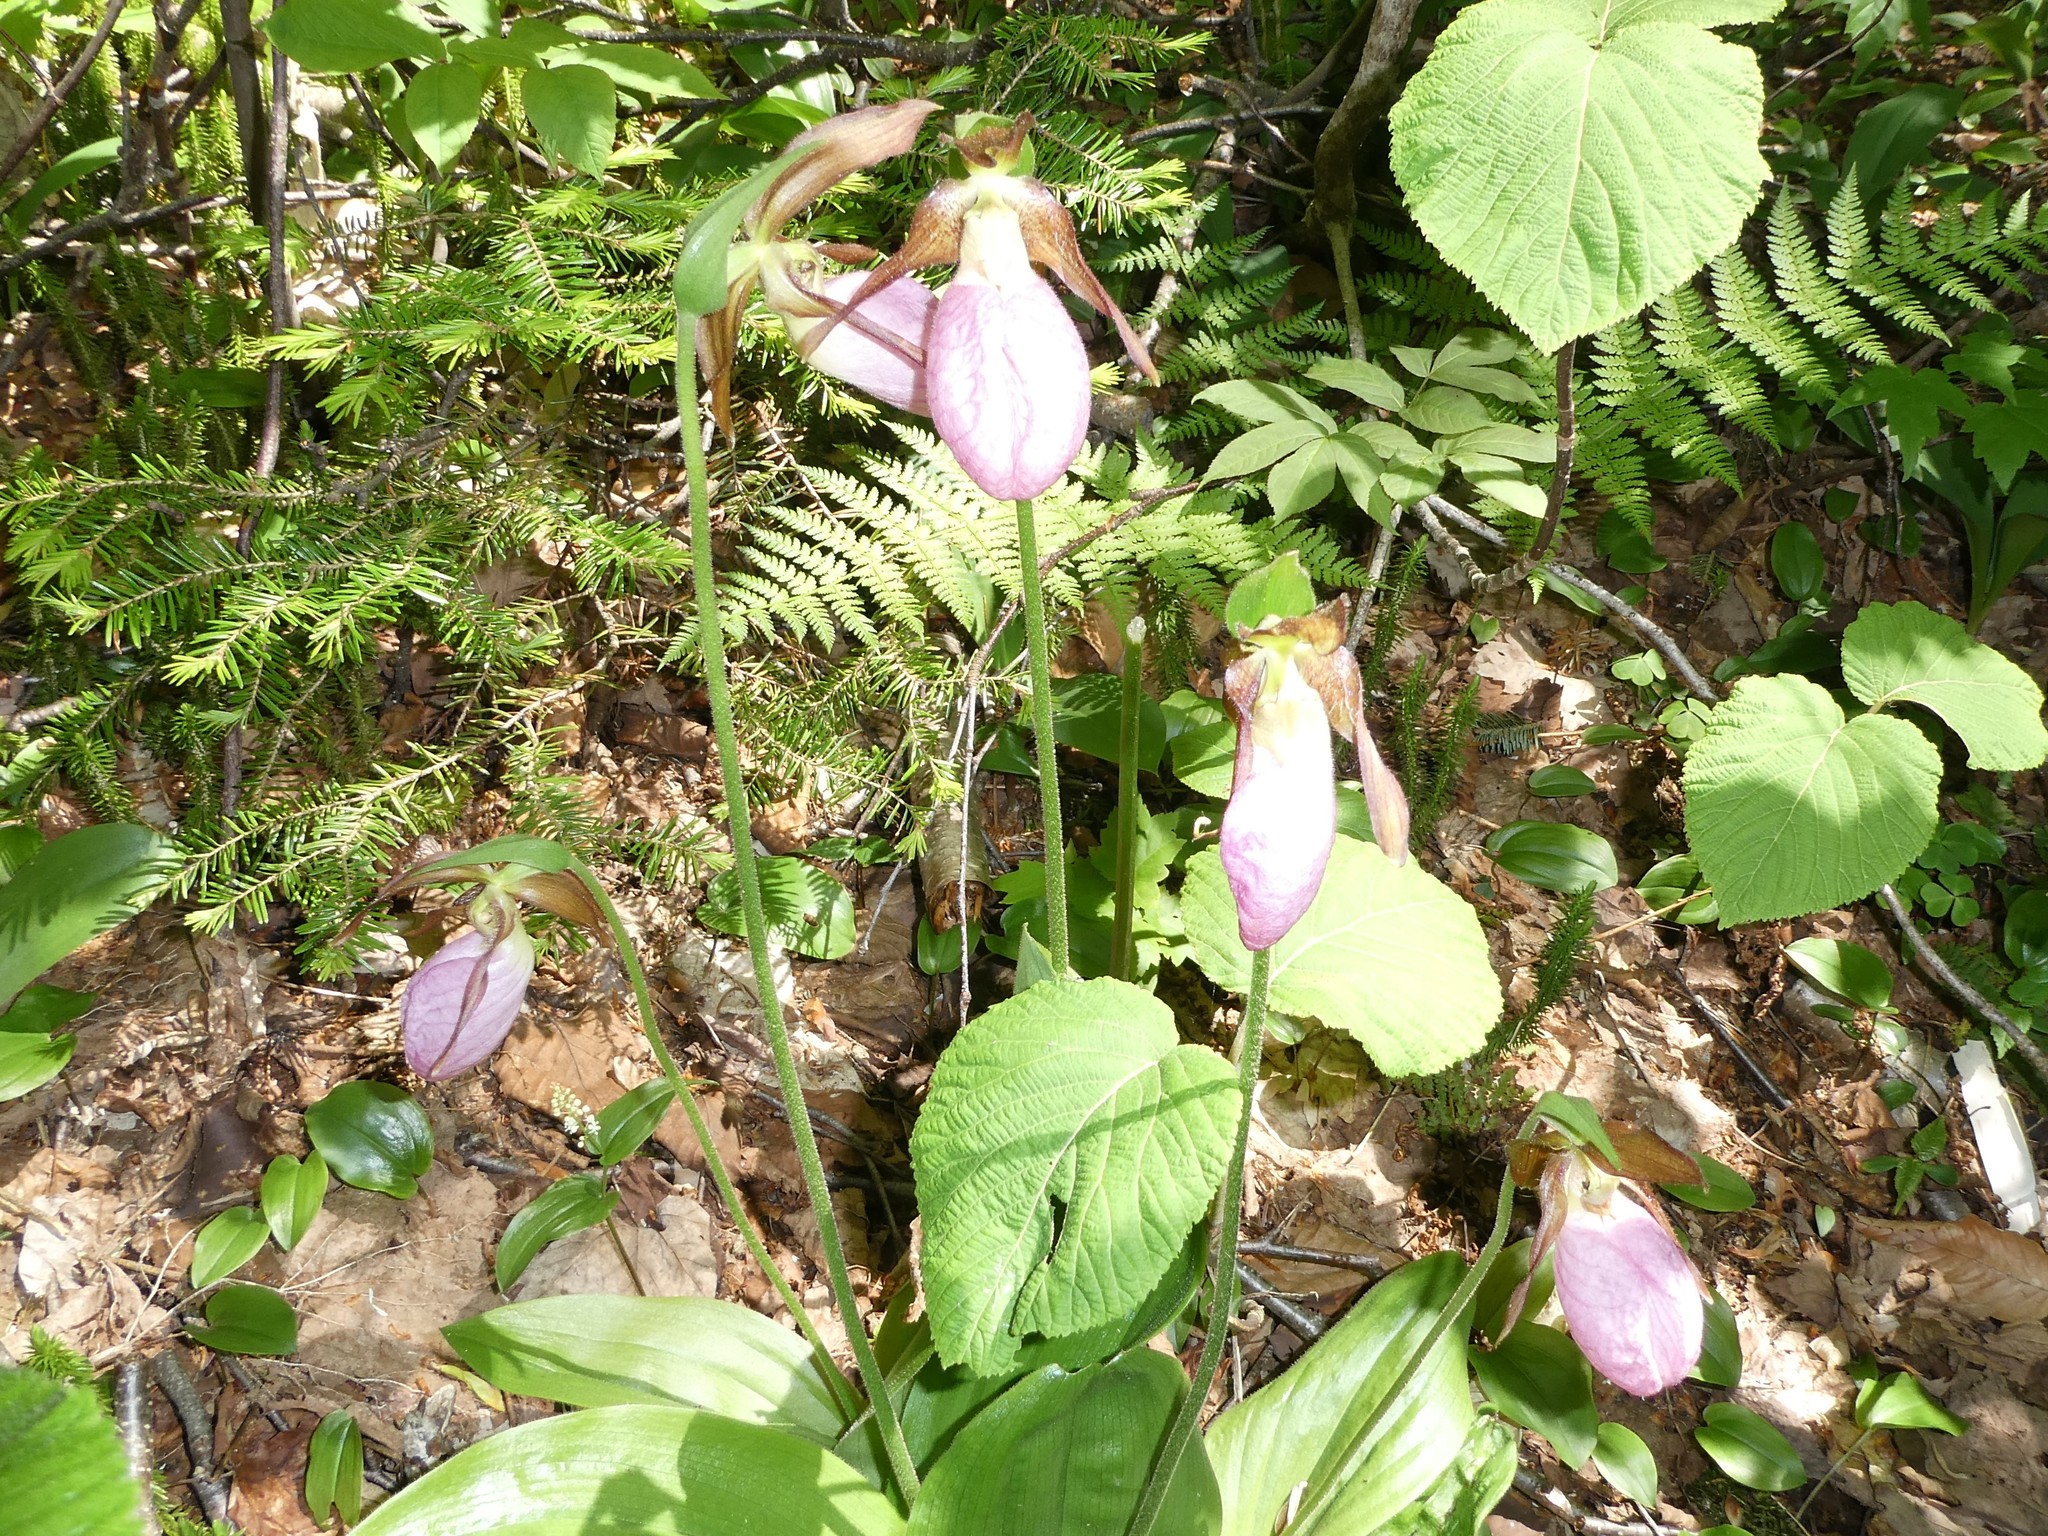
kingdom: Plantae
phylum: Tracheophyta
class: Liliopsida
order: Asparagales
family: Orchidaceae
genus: Cypripedium
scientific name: Cypripedium acaule
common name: Pink lady's-slipper
